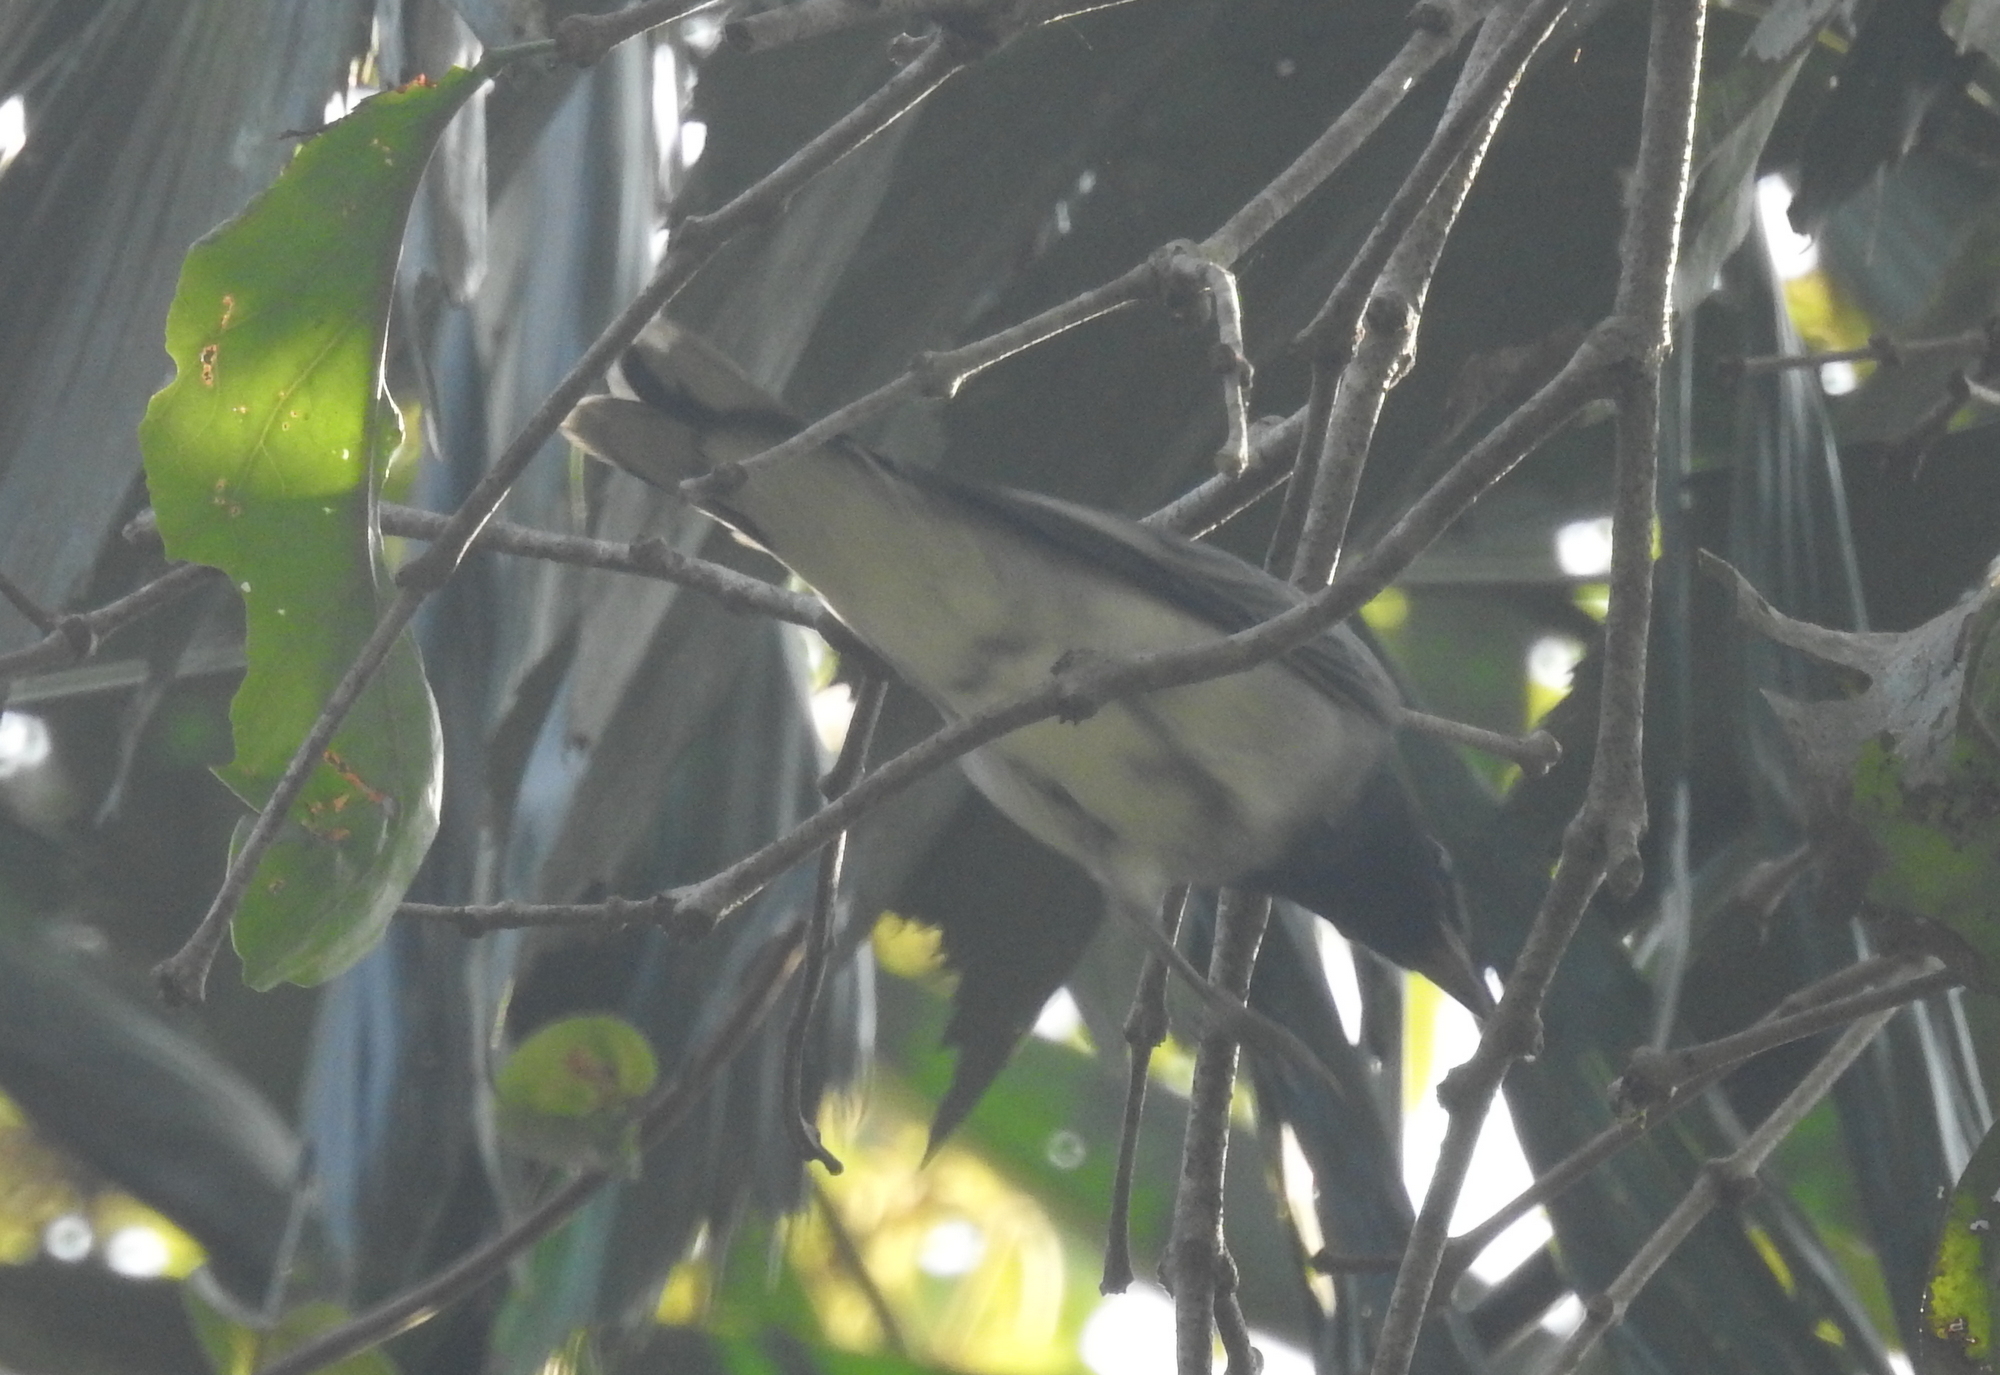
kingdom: Animalia
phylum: Chordata
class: Aves
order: Passeriformes
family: Campephagidae
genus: Coracina
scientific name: Coracina melanoptera
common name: Black-headed cuckooshrike
